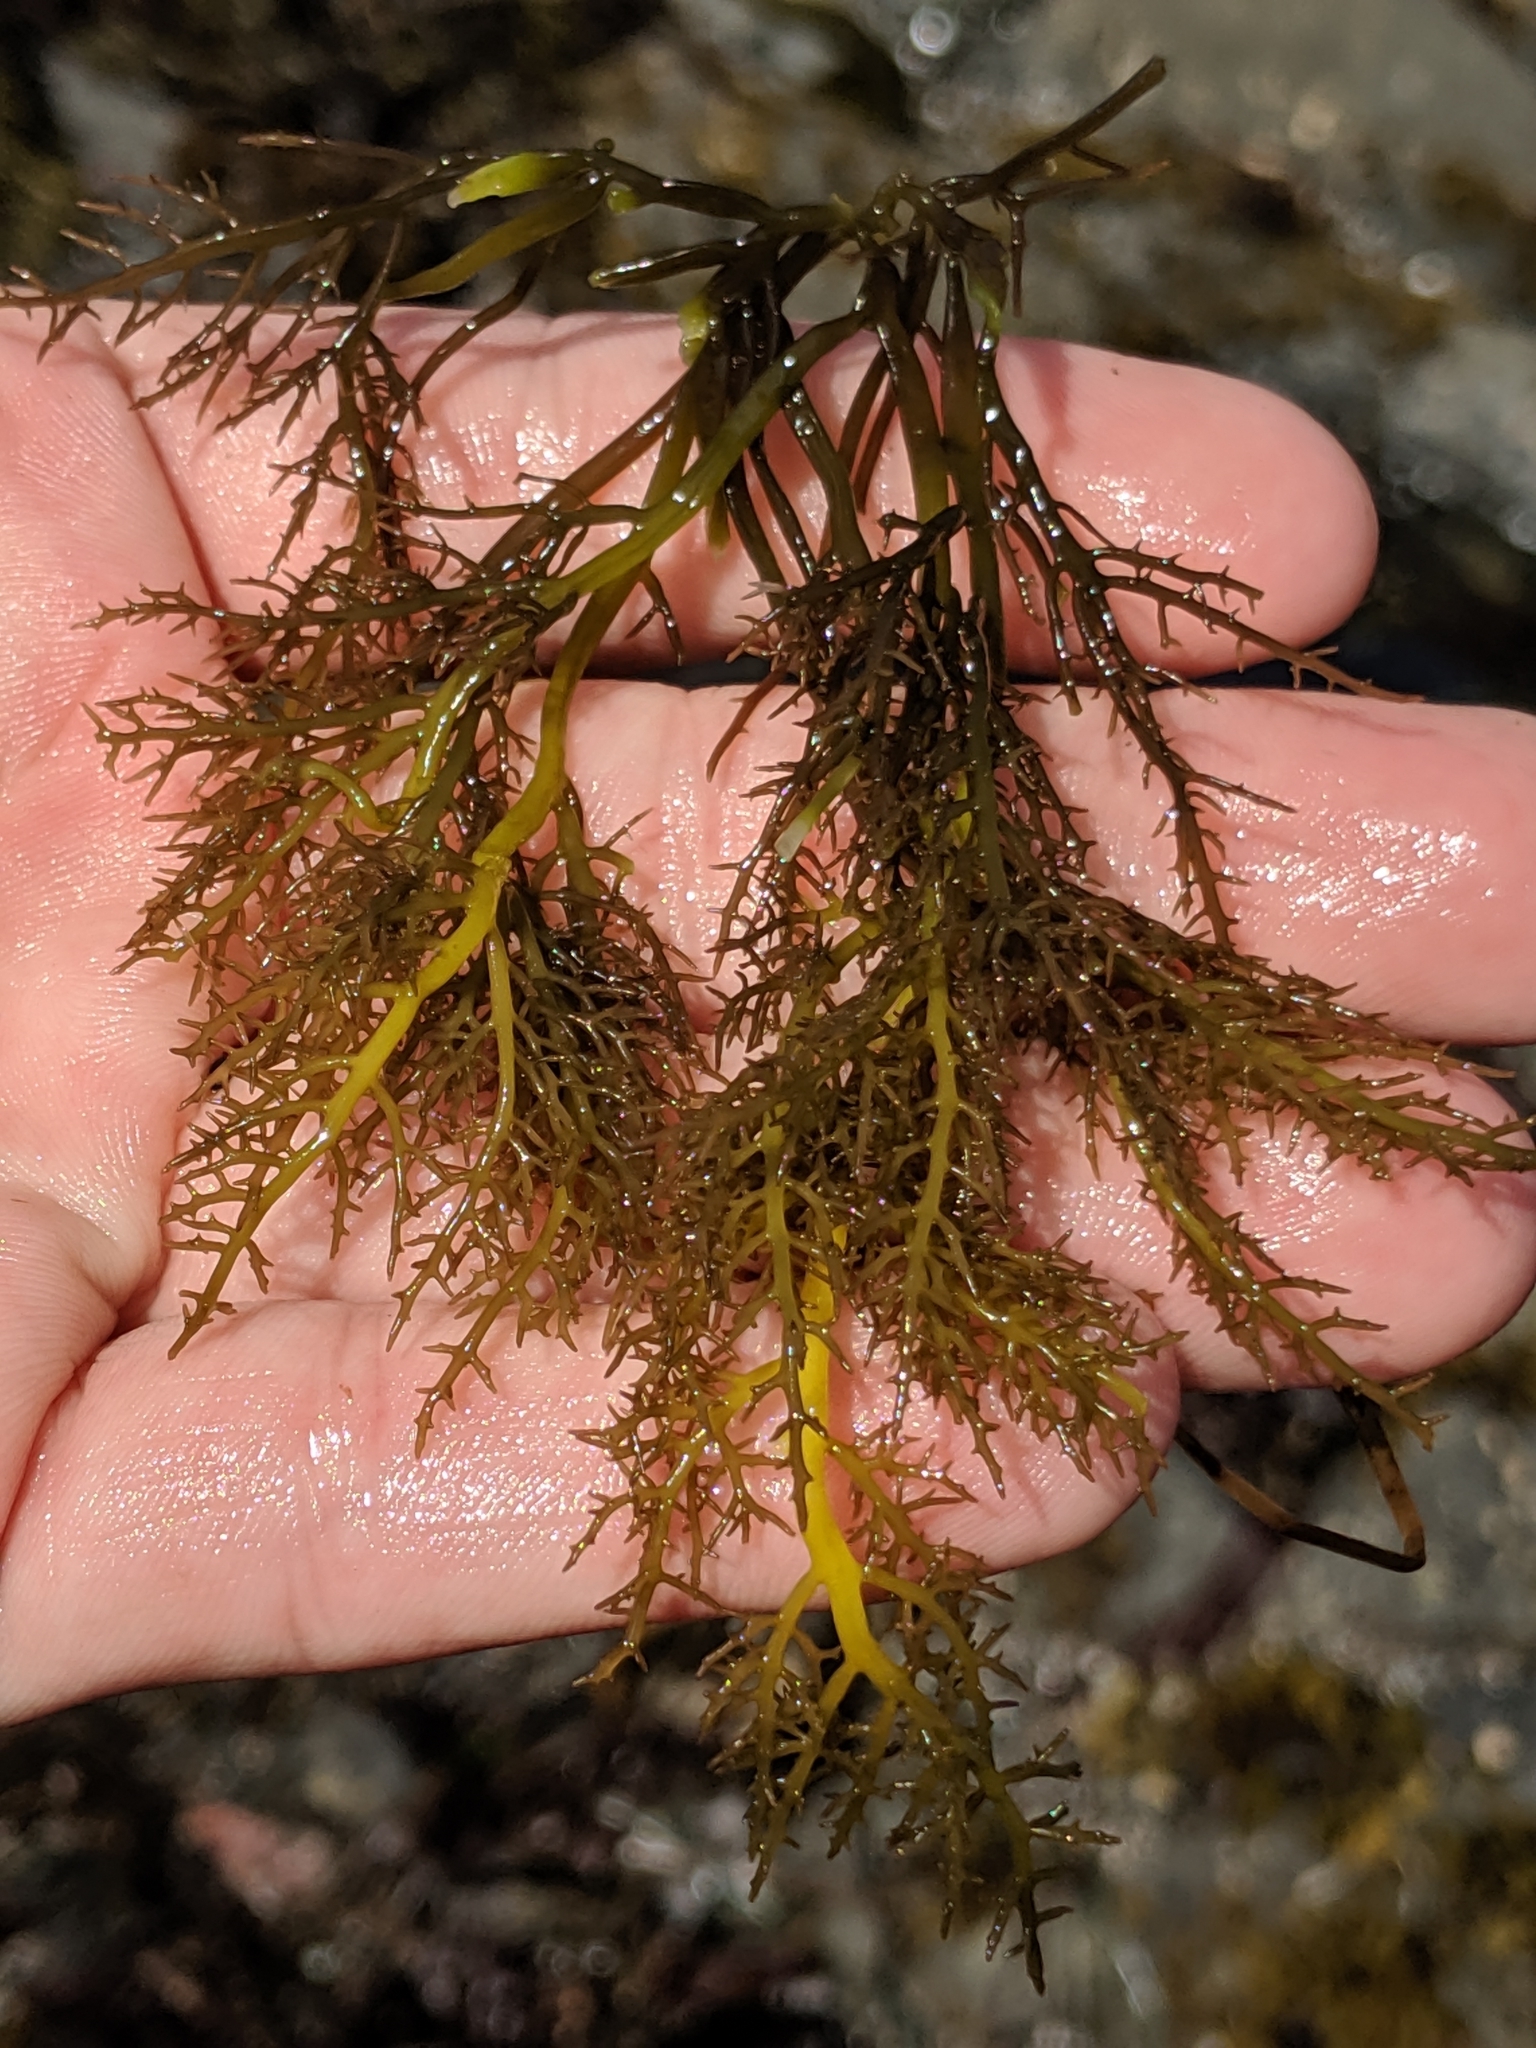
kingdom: Plantae
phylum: Rhodophyta
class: Florideophyceae
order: Gigartinales
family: Gigartinaceae
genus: Chondracanthus
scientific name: Chondracanthus canaliculatus
